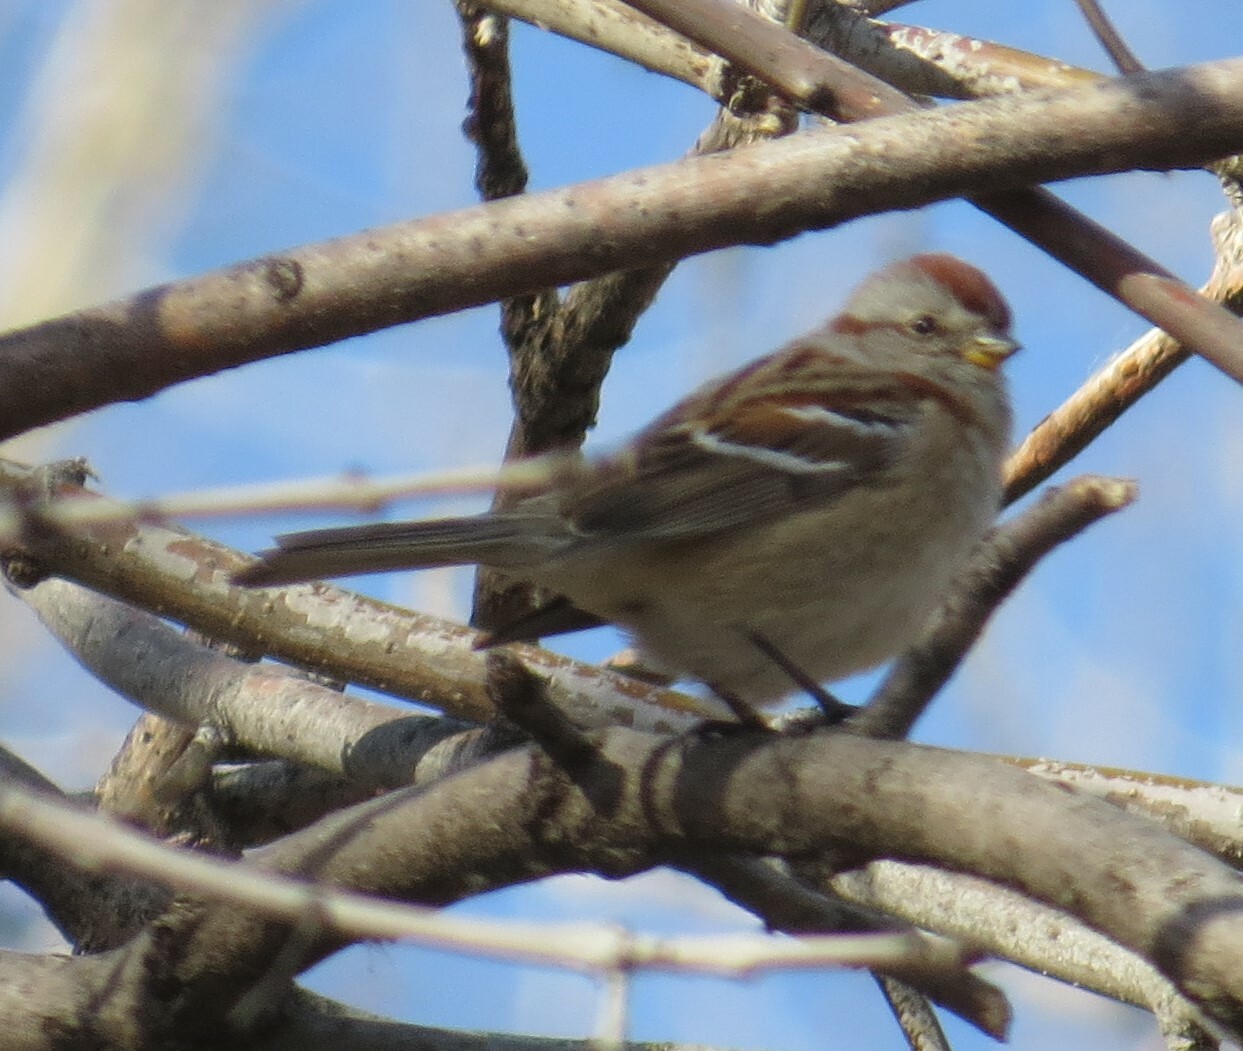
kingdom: Animalia
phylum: Chordata
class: Aves
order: Passeriformes
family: Passerellidae
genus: Spizelloides
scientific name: Spizelloides arborea
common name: American tree sparrow
